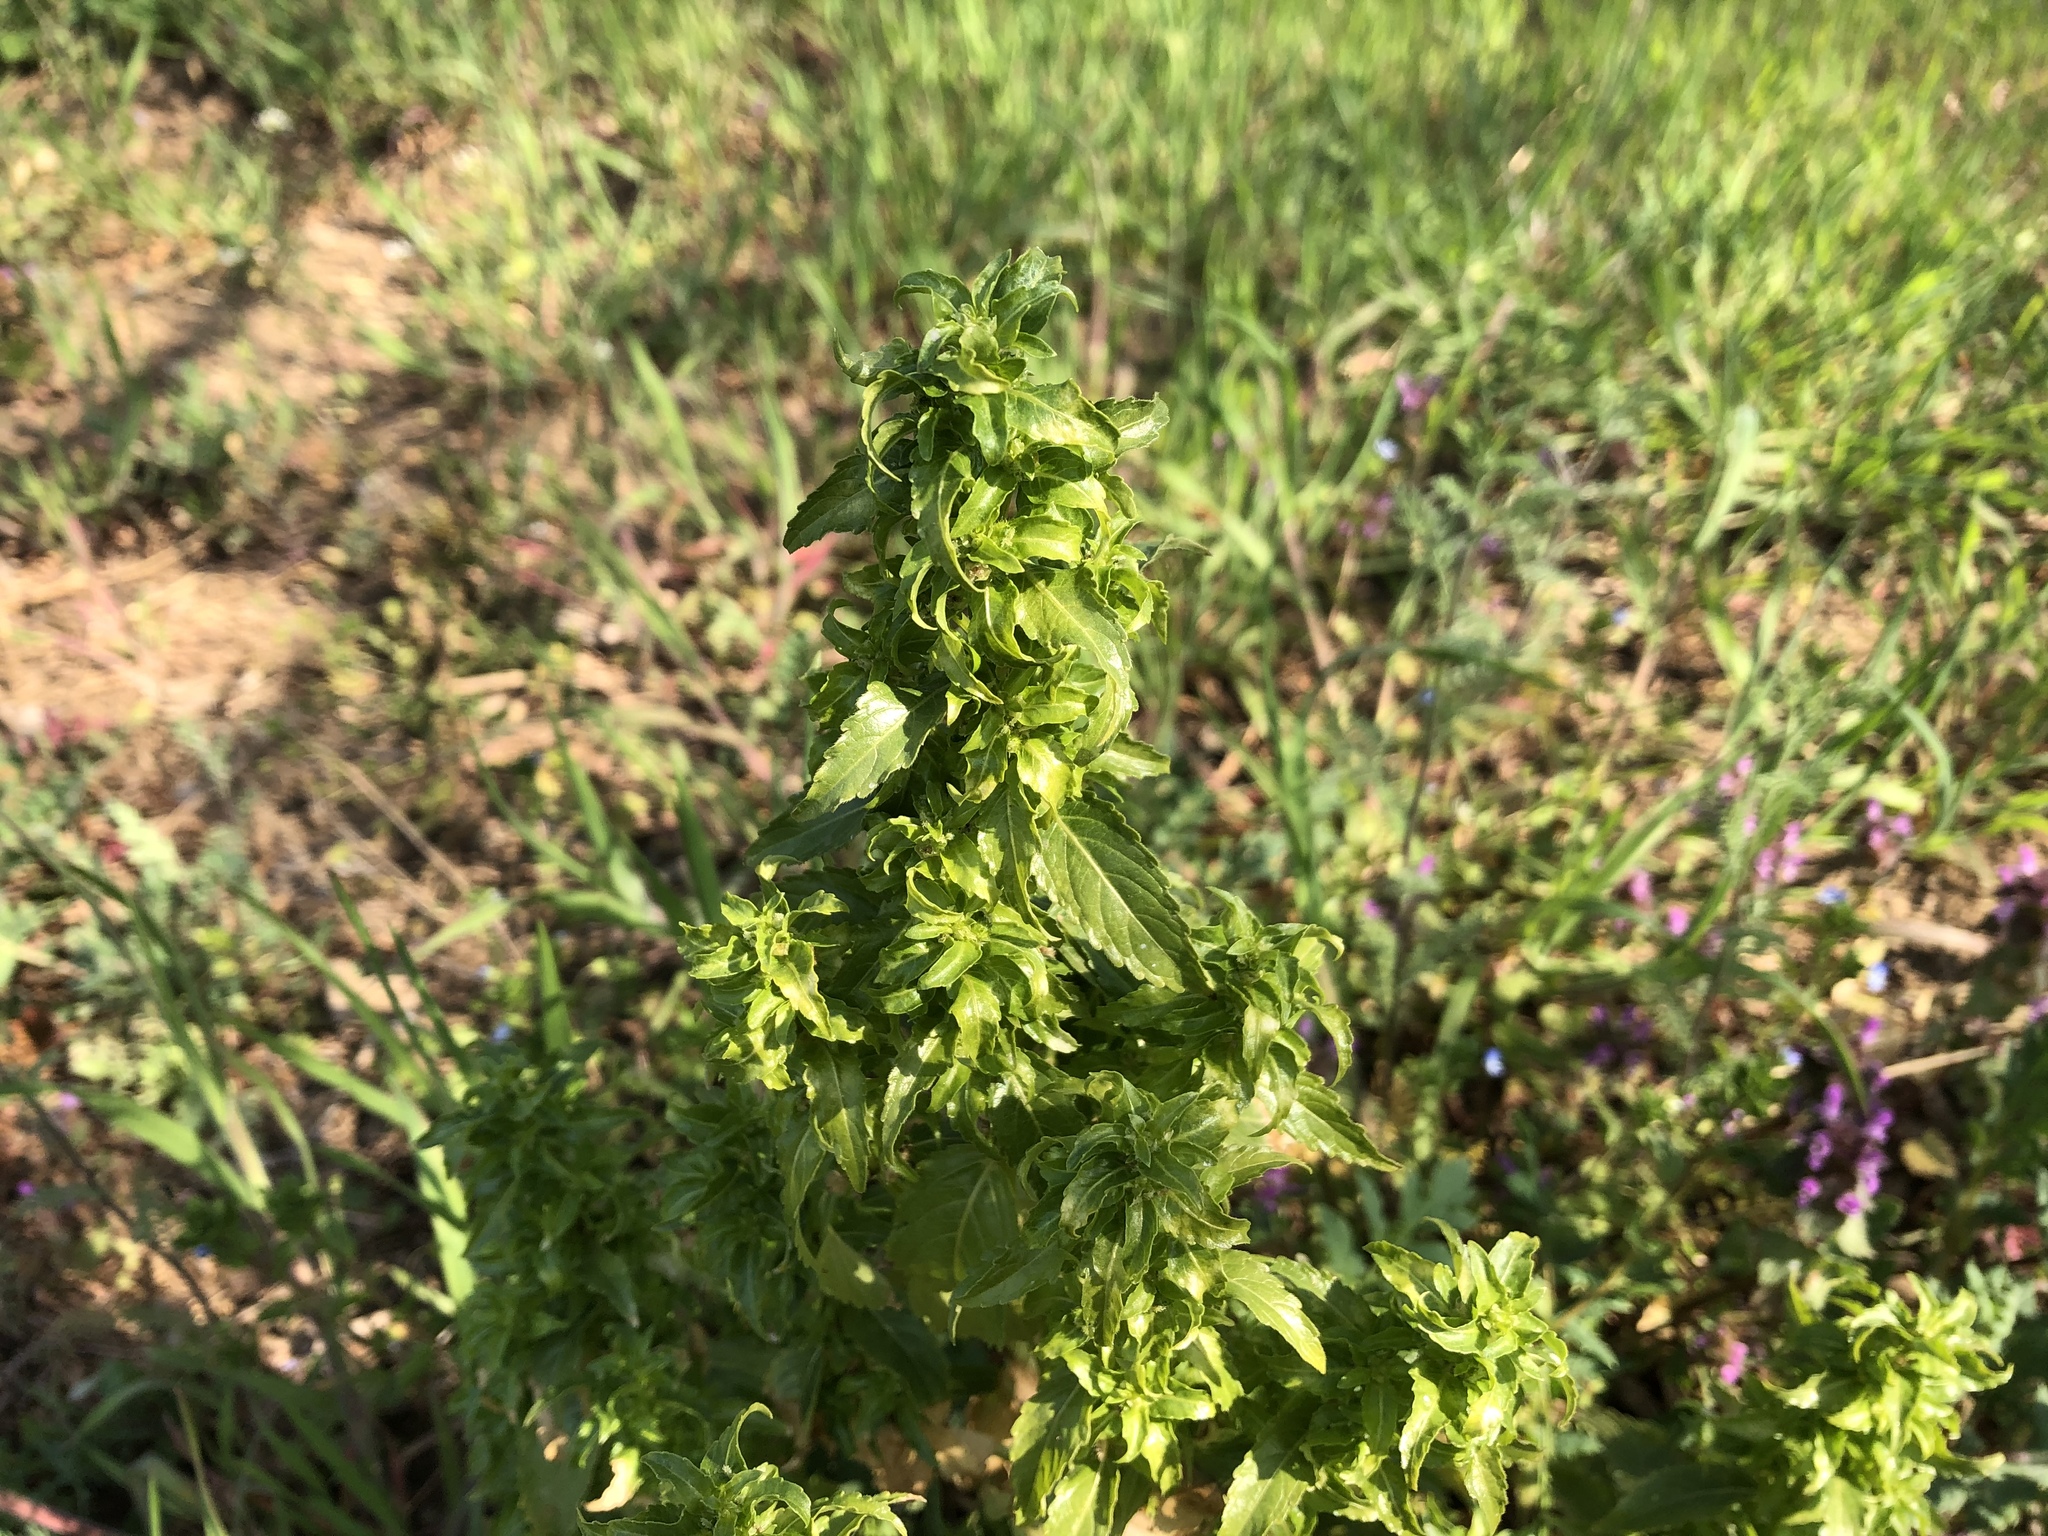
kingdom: Plantae
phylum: Tracheophyta
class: Magnoliopsida
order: Malpighiales
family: Euphorbiaceae
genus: Mercurialis
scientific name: Mercurialis annua
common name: Annual mercury
